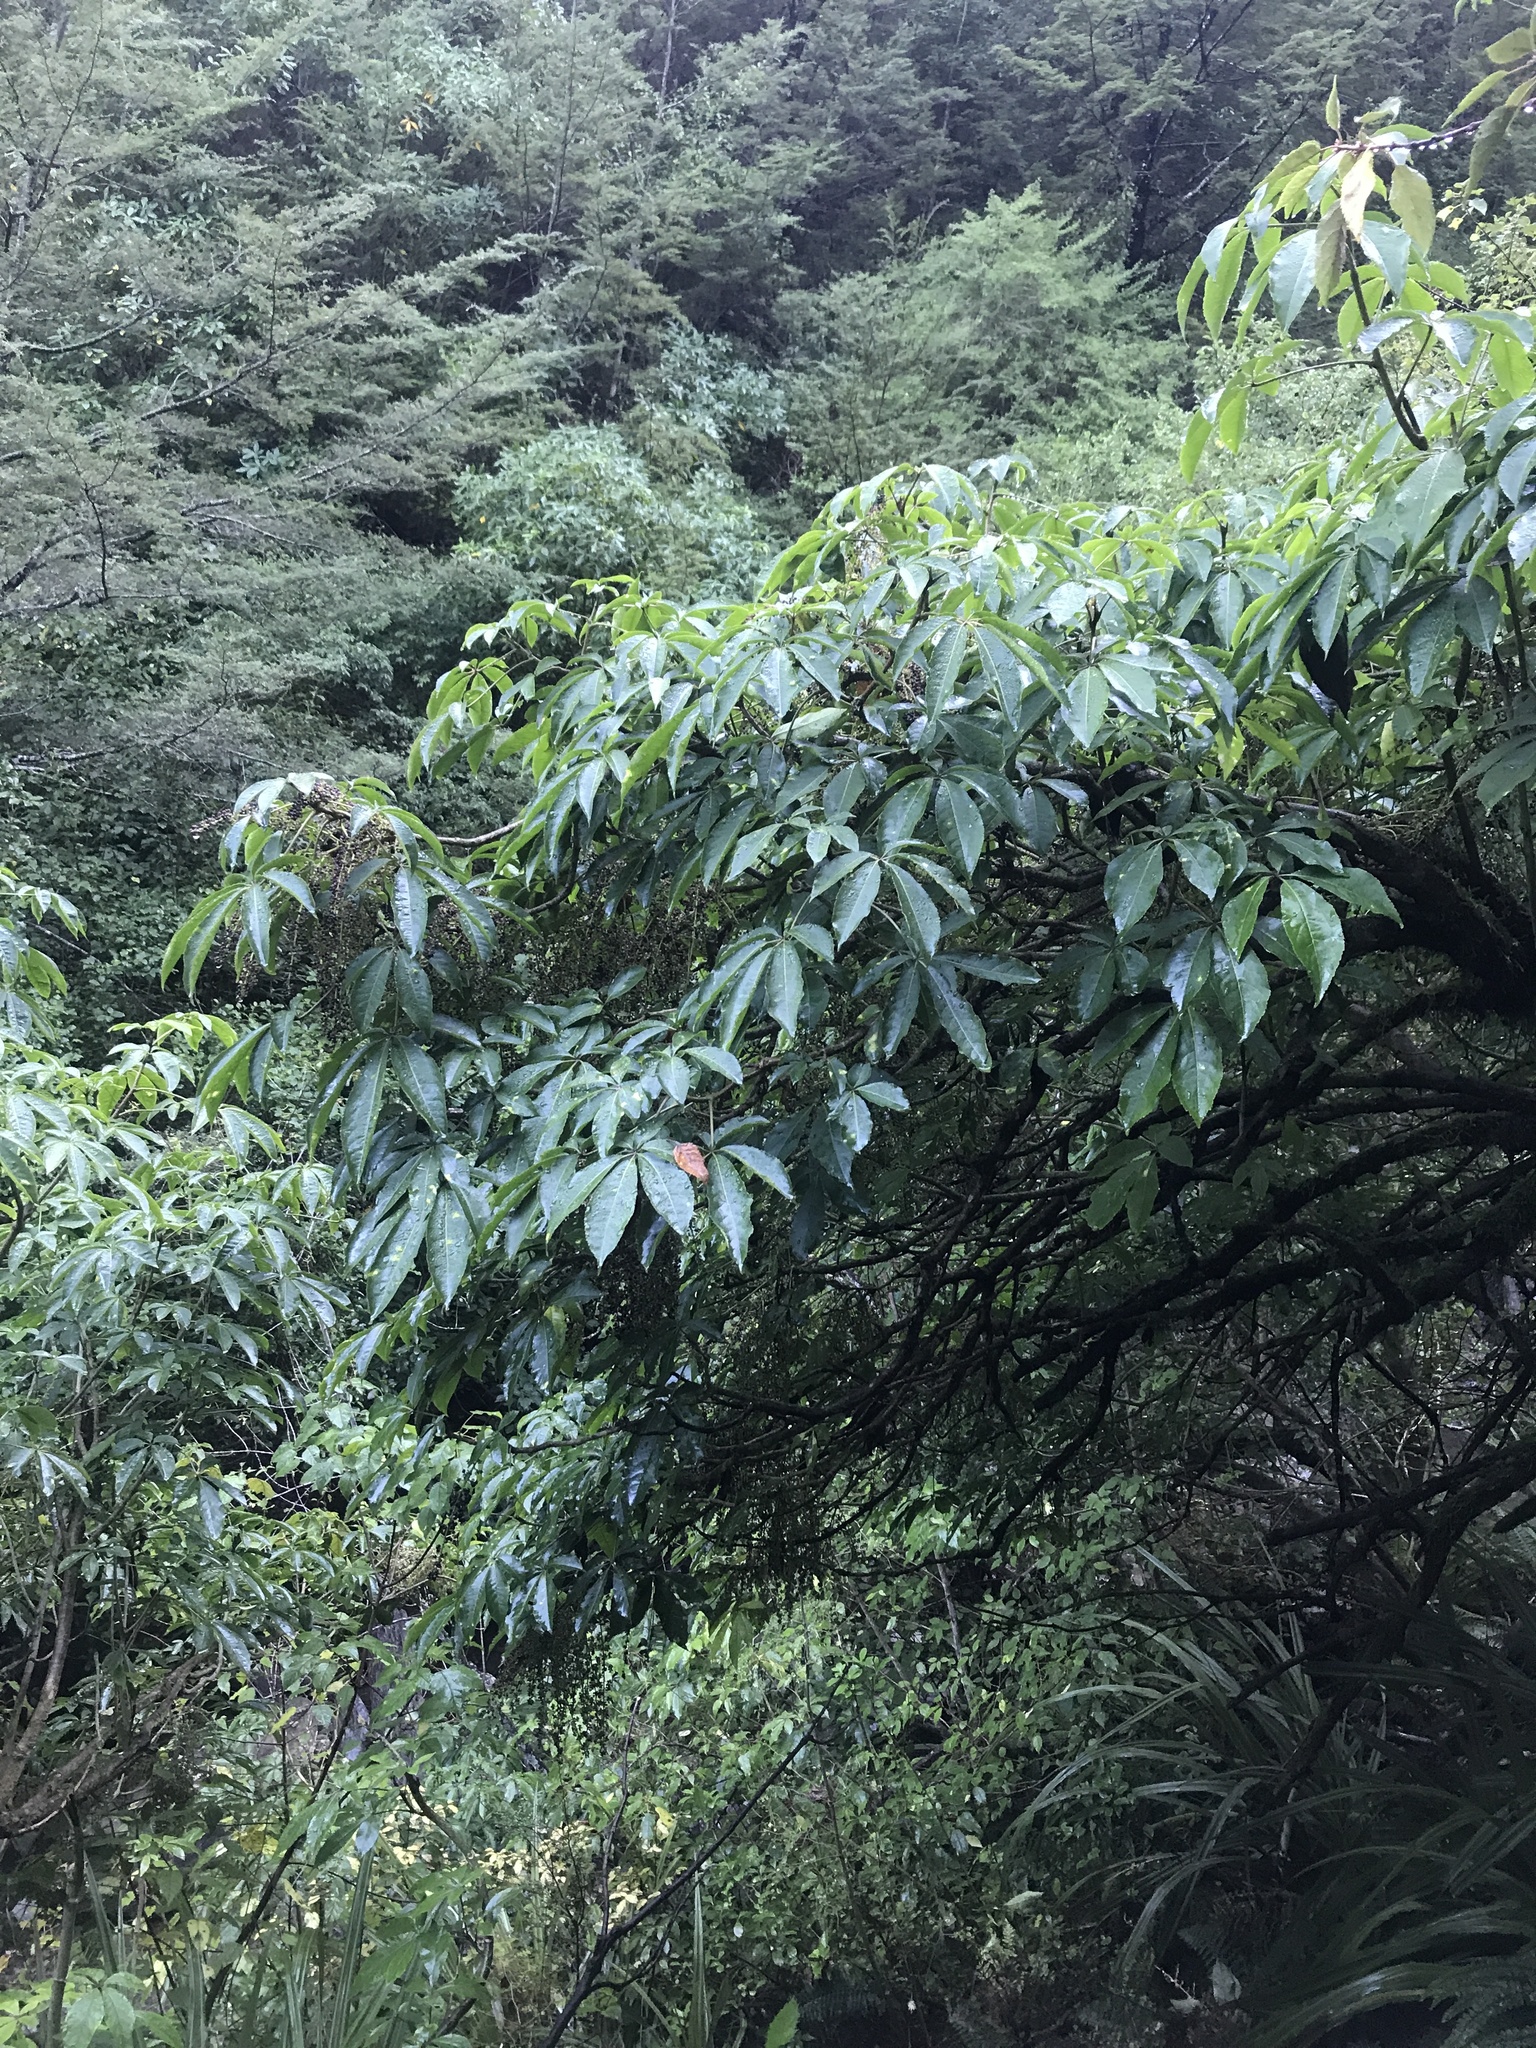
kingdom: Plantae
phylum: Tracheophyta
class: Magnoliopsida
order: Apiales
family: Araliaceae
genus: Schefflera
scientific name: Schefflera digitata
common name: Pate
